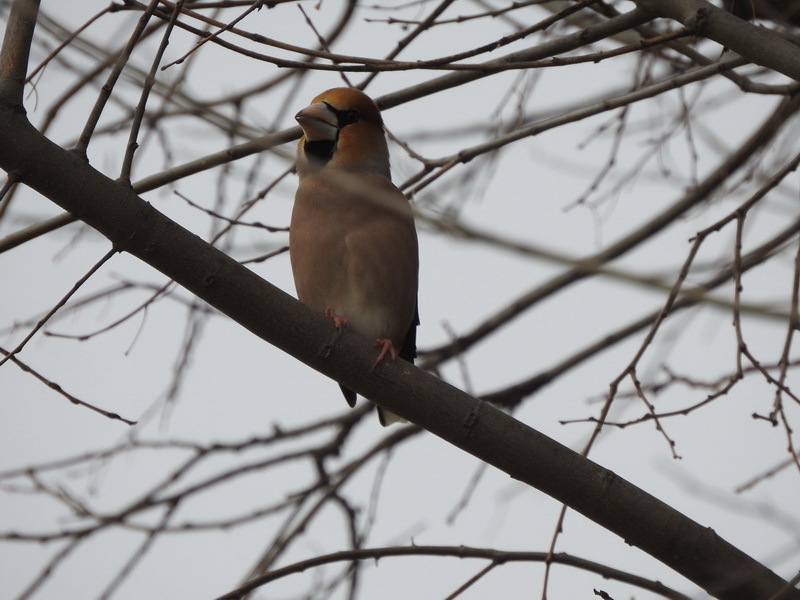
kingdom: Animalia
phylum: Chordata
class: Aves
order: Passeriformes
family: Fringillidae
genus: Coccothraustes
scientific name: Coccothraustes coccothraustes
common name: Hawfinch
